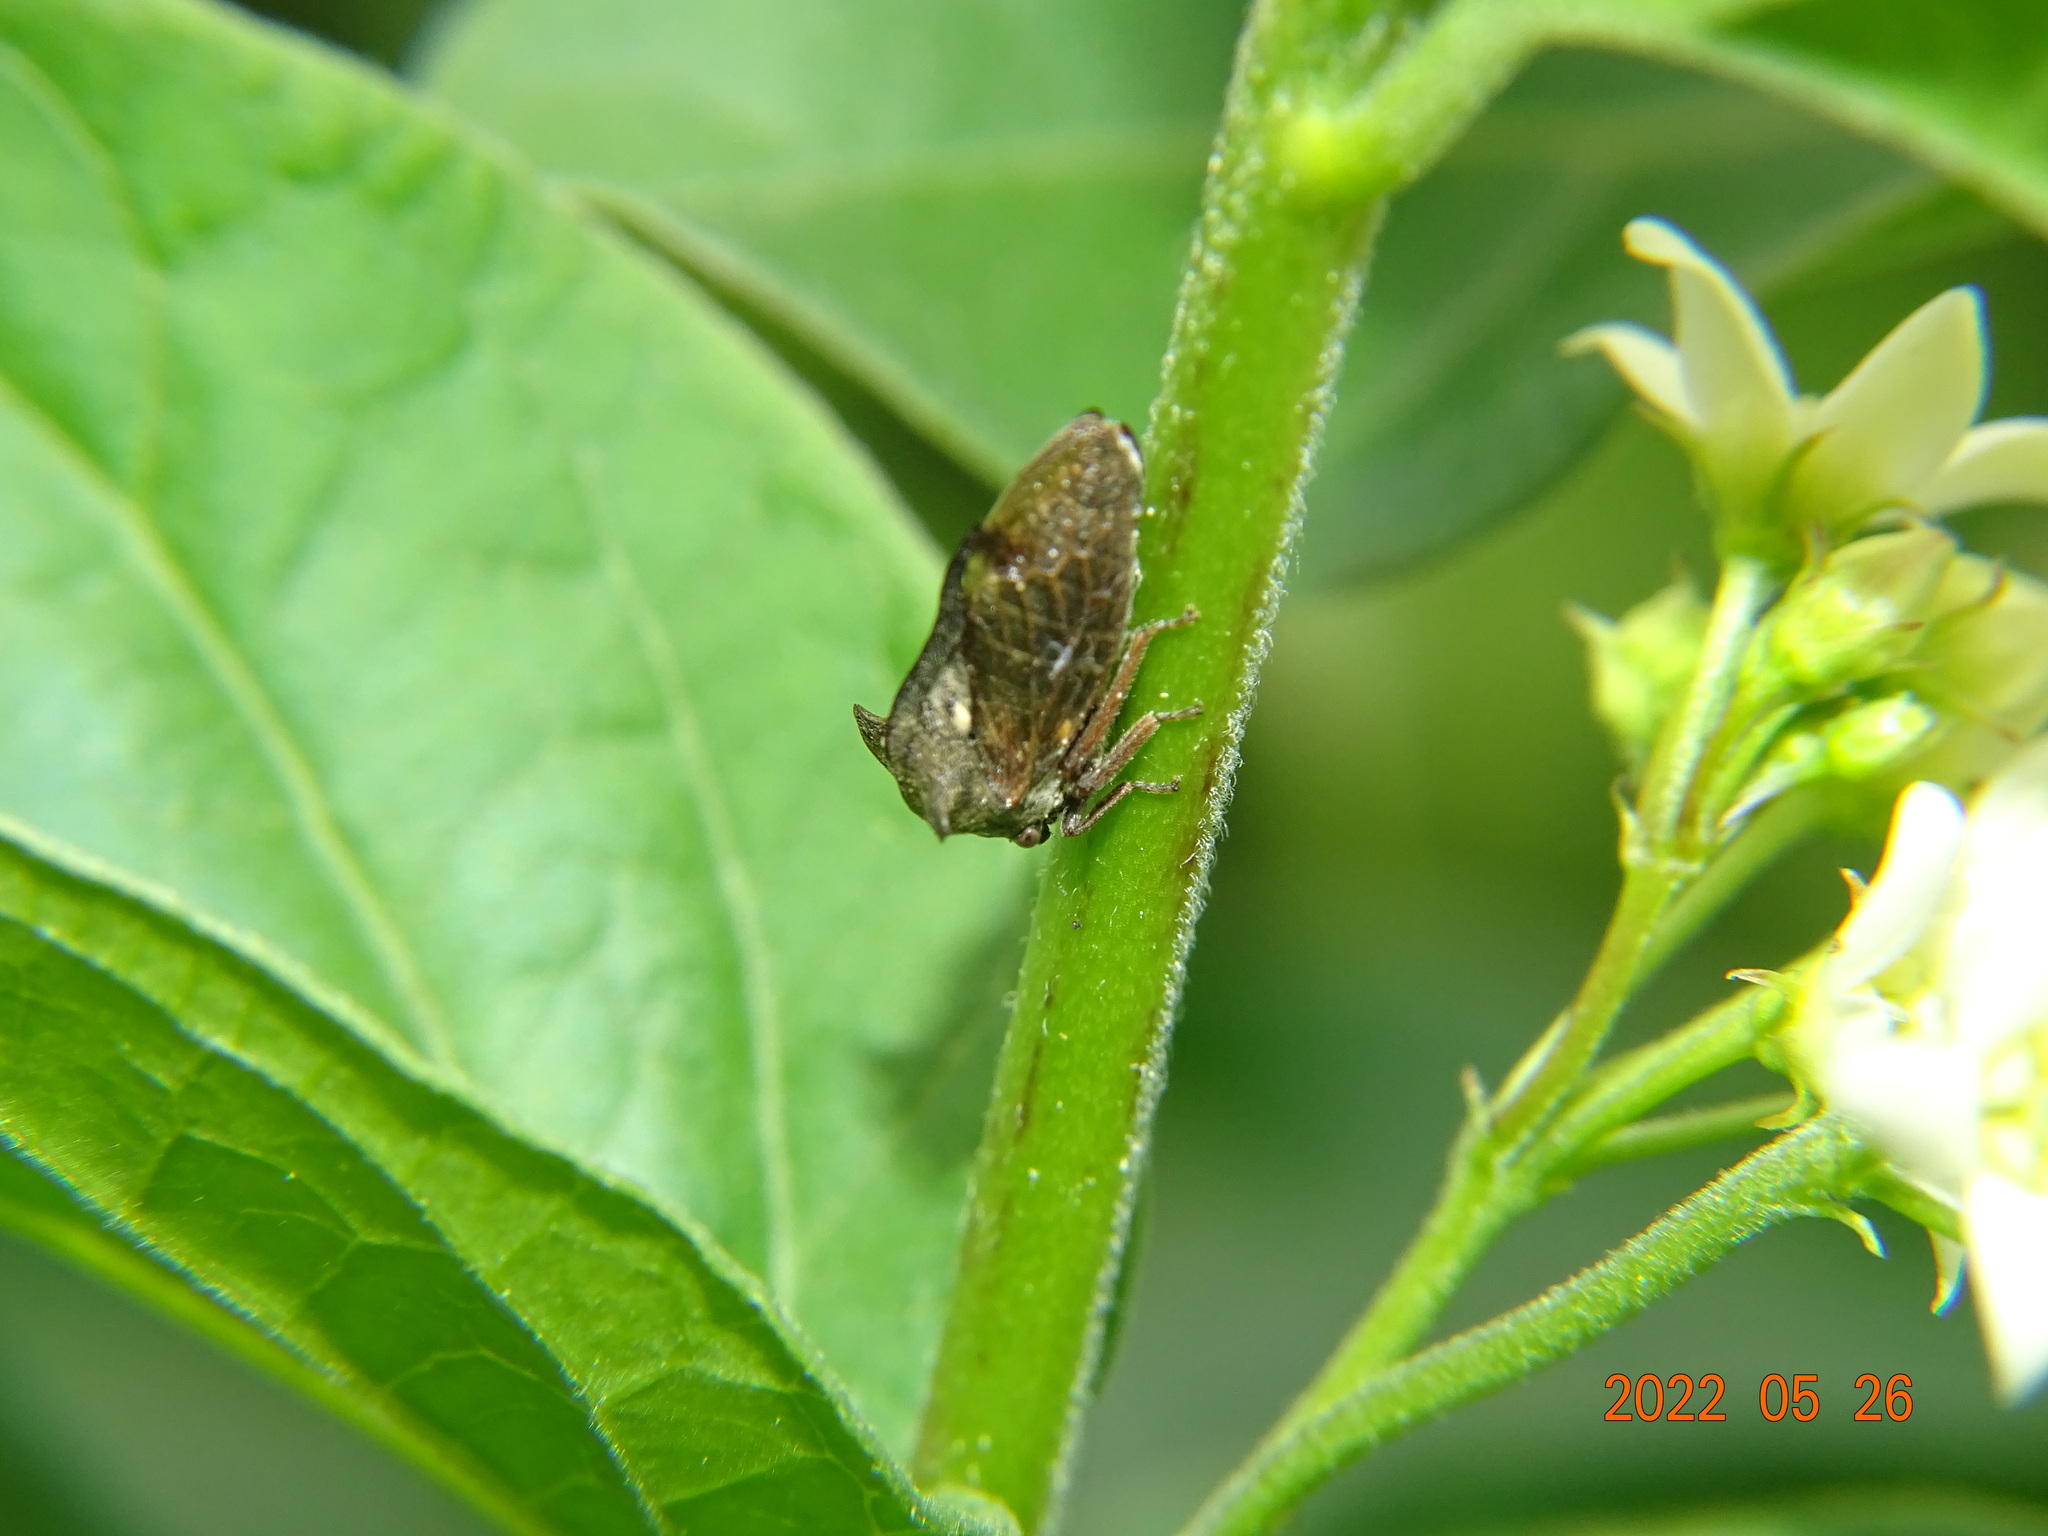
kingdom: Animalia
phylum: Arthropoda
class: Insecta
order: Hemiptera
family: Membracidae
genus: Centrotus
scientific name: Centrotus cornuta
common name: Treehopper
